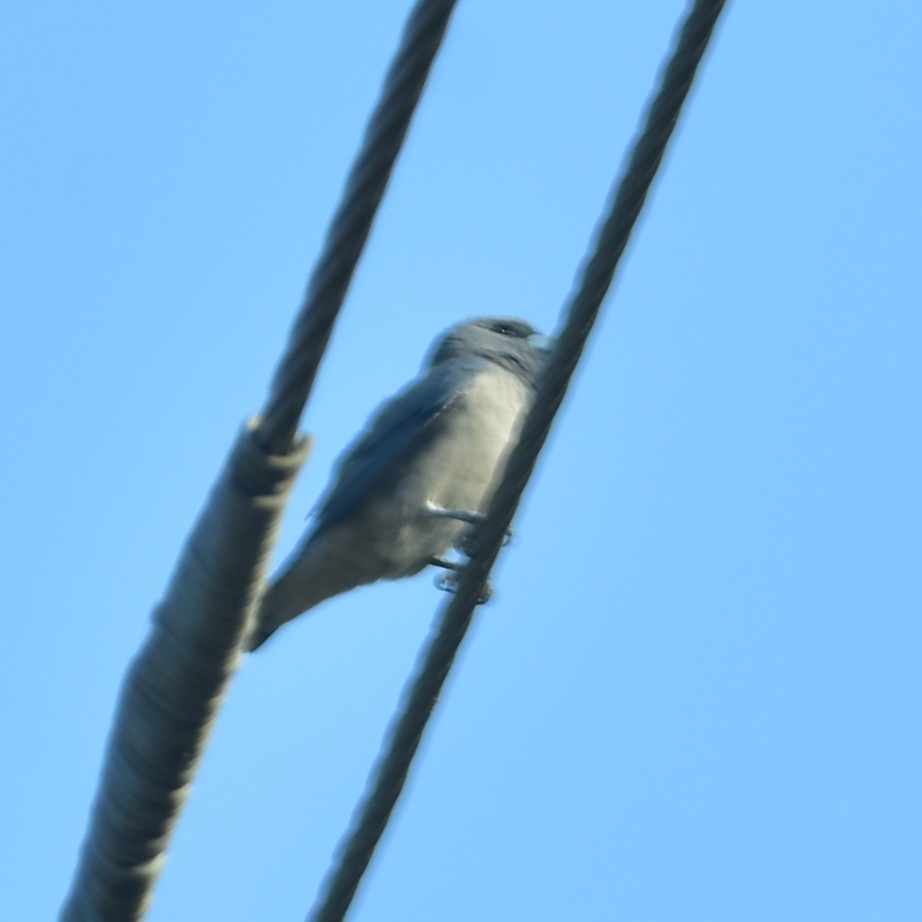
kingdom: Animalia
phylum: Chordata
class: Aves
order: Passeriformes
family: Artamidae
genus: Artamus
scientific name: Artamus fuscus
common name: Ashy woodswallow
